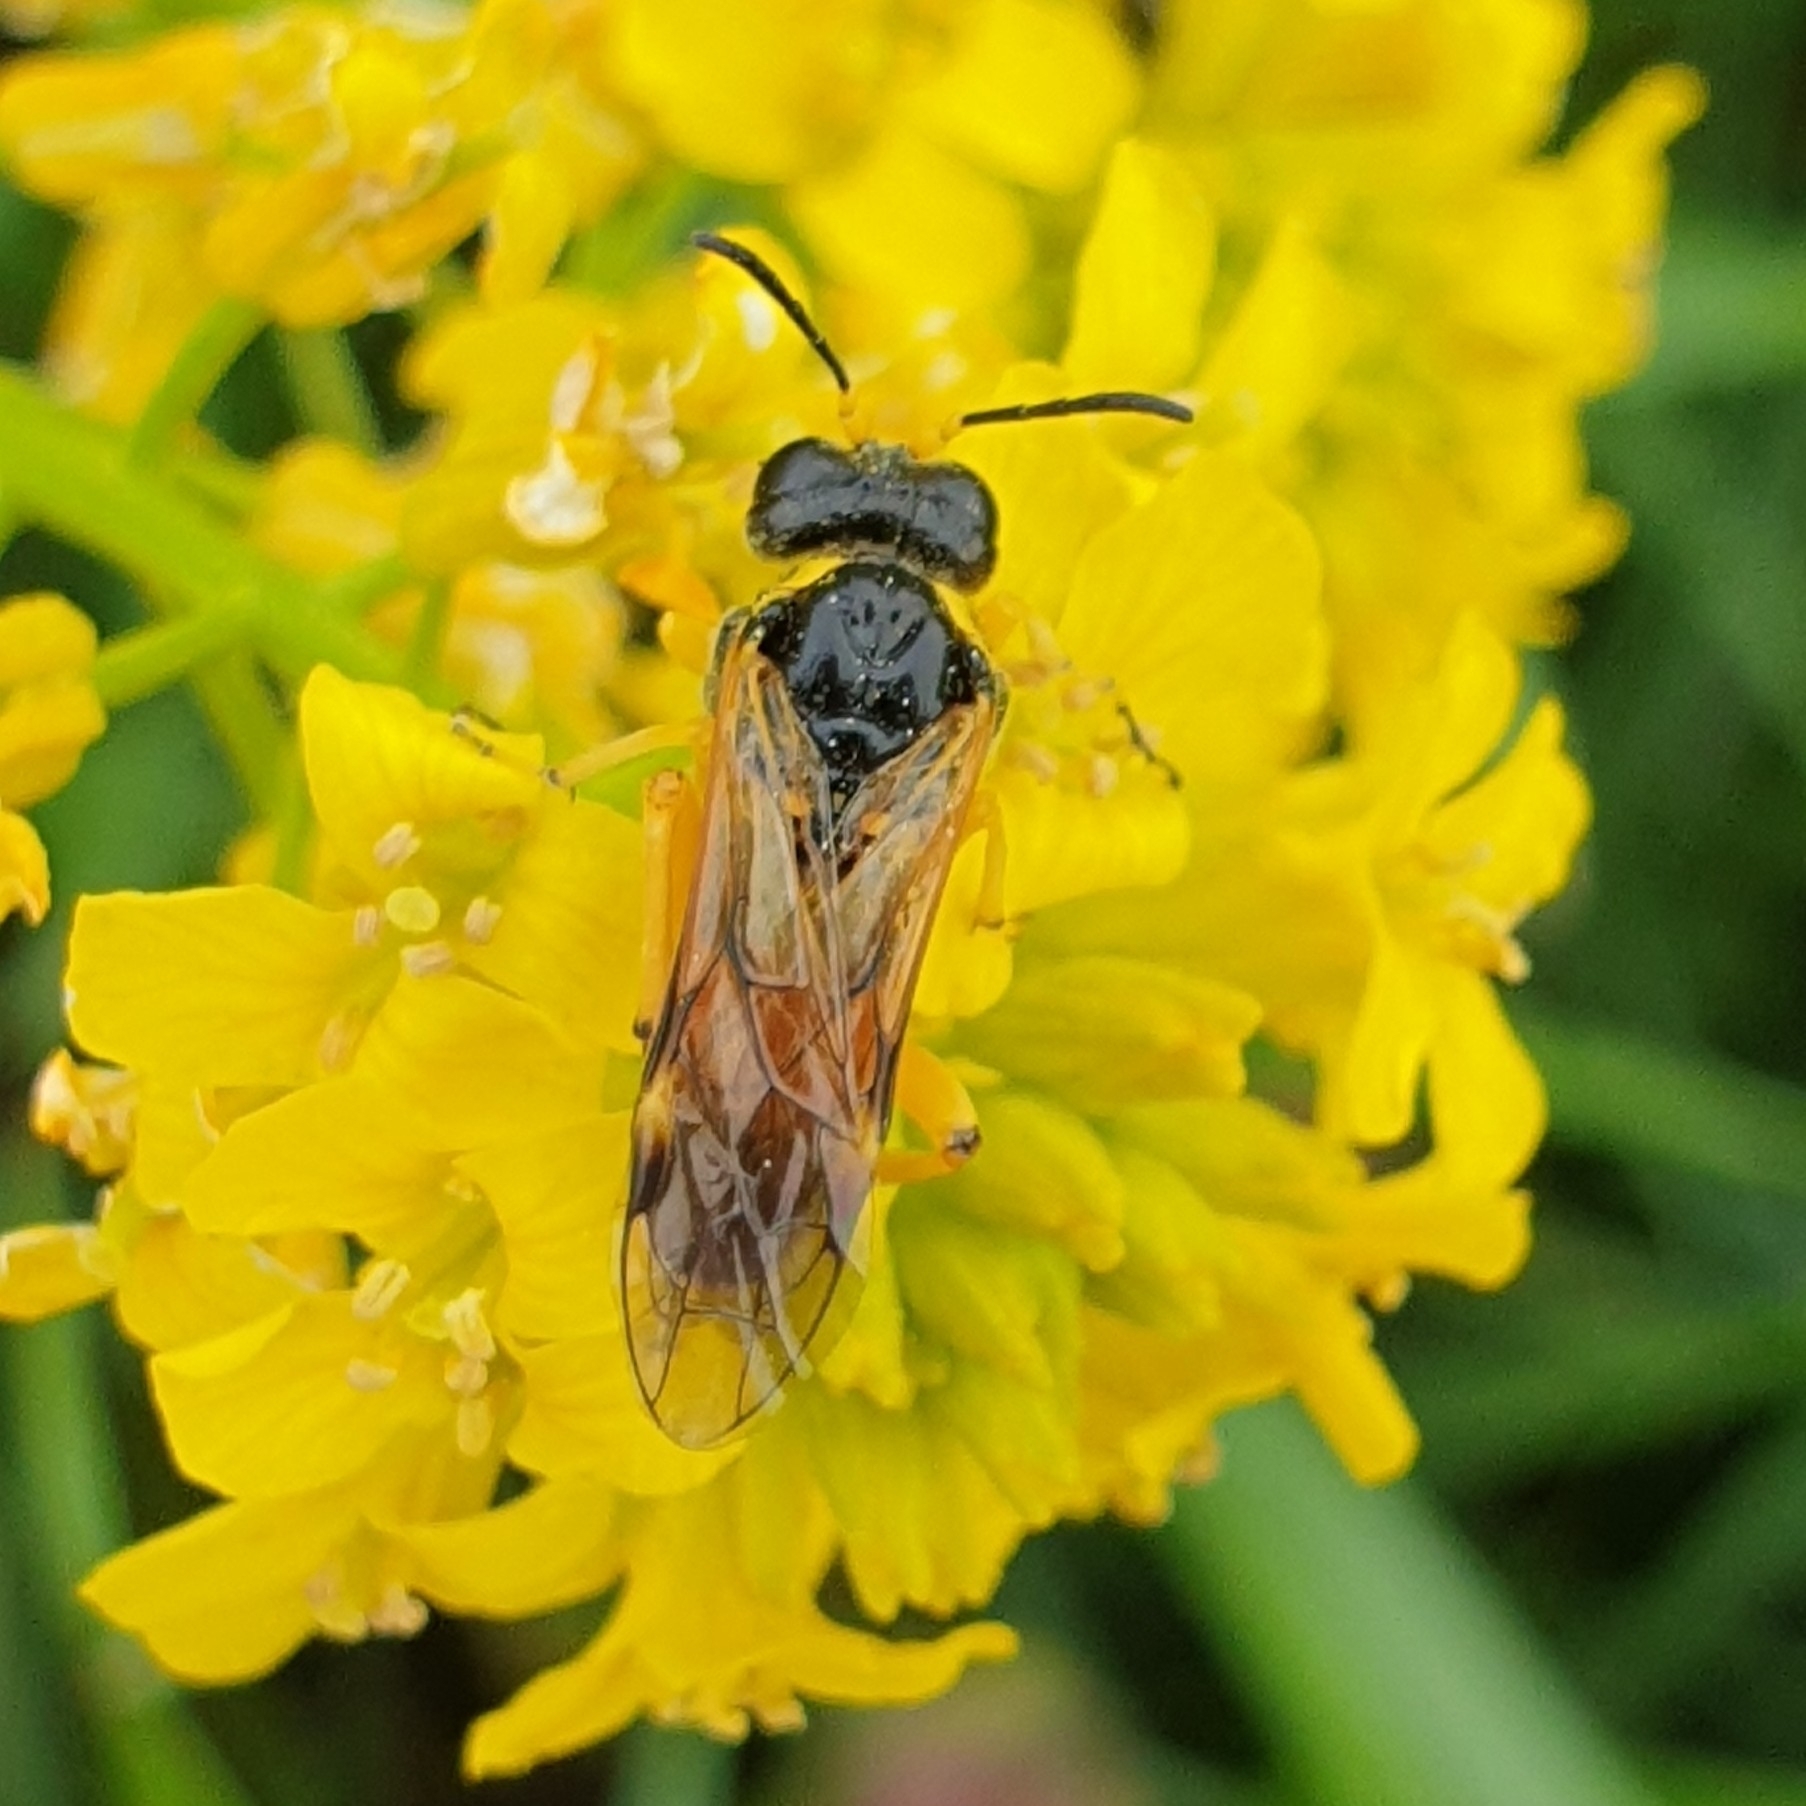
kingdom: Animalia
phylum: Arthropoda
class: Insecta
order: Hymenoptera
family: Tenthredinidae
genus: Tenthredo
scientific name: Tenthredo flaveola
